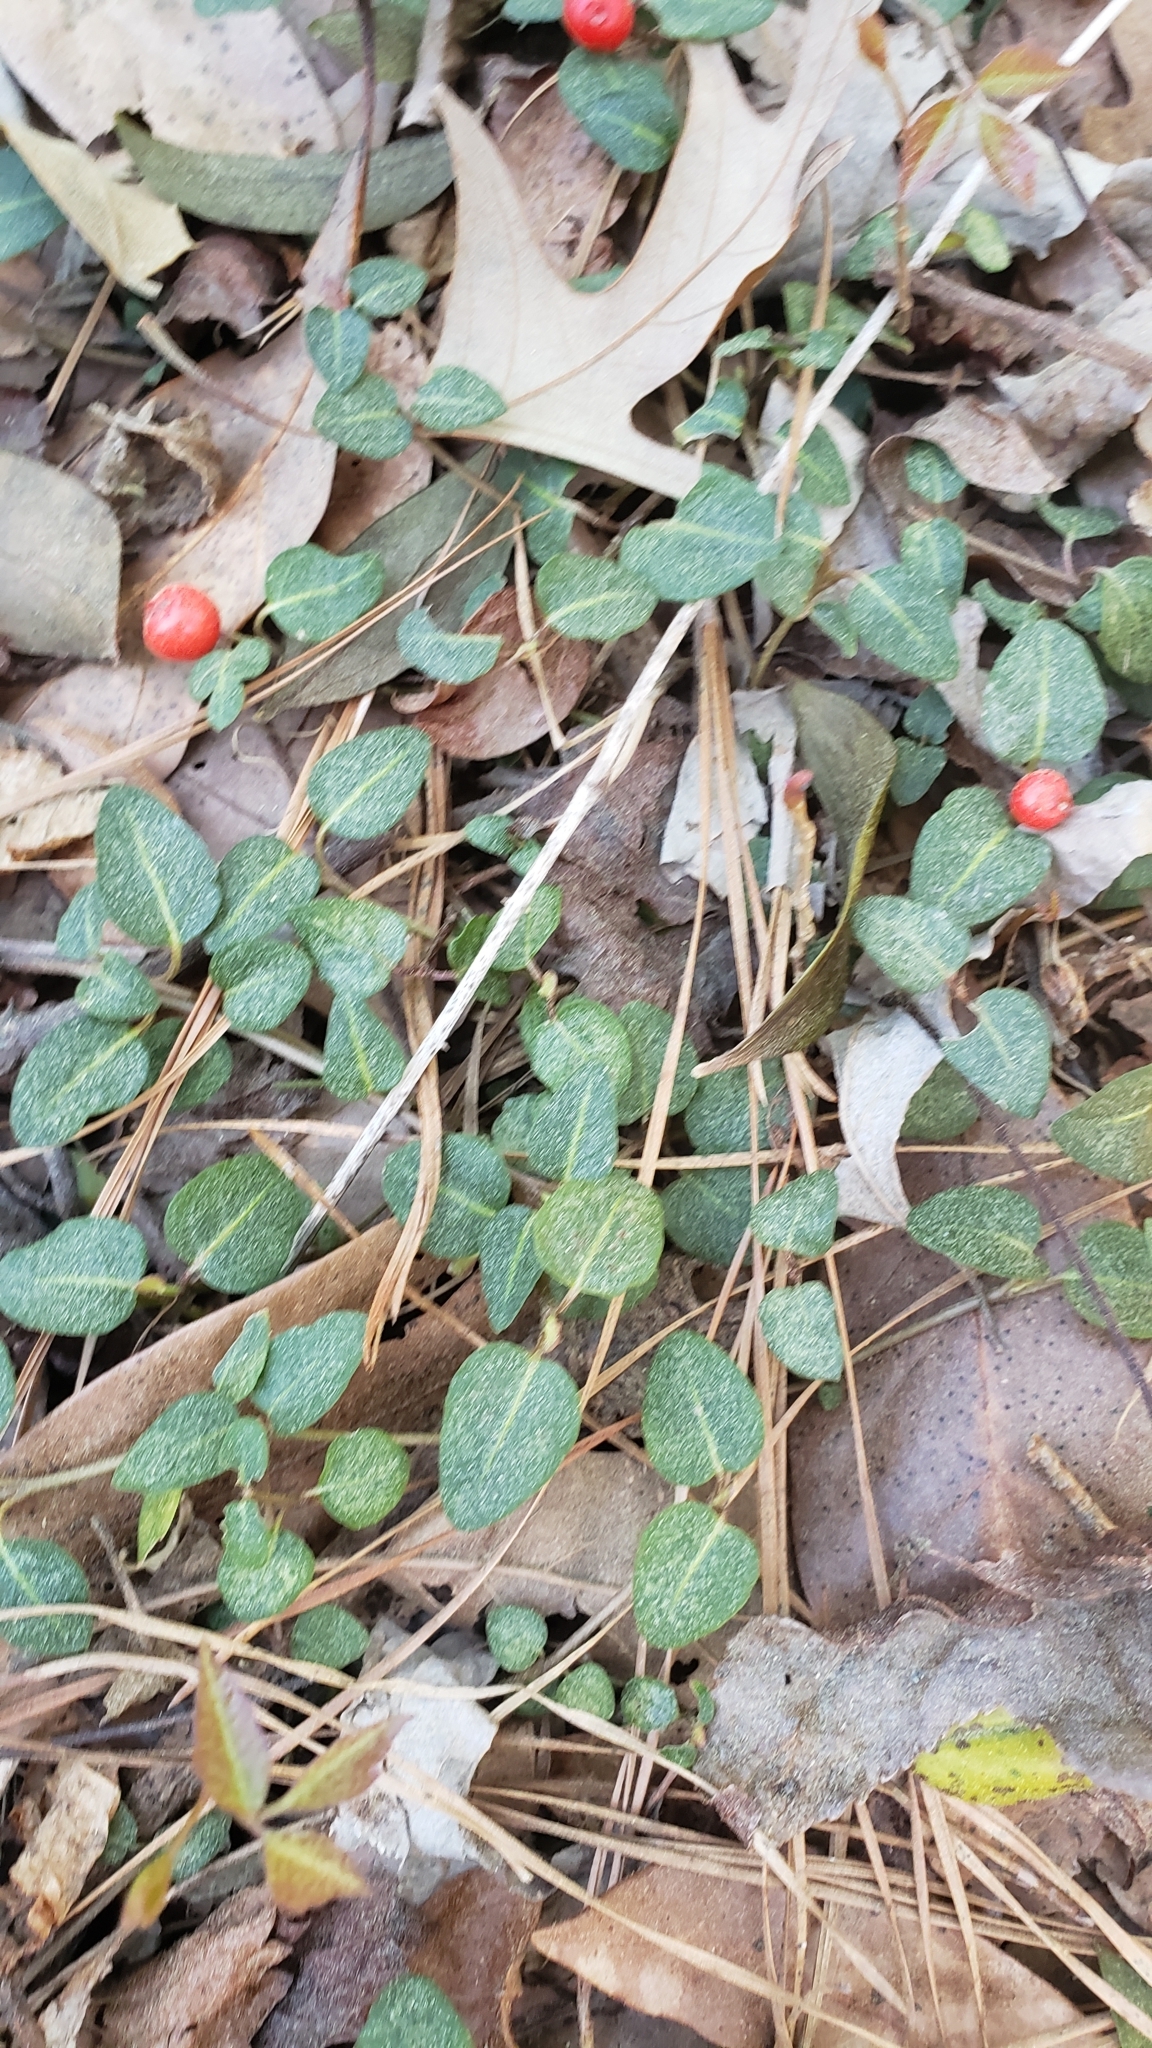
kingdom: Plantae
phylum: Tracheophyta
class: Magnoliopsida
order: Gentianales
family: Rubiaceae
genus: Mitchella
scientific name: Mitchella repens
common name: Partridge-berry
